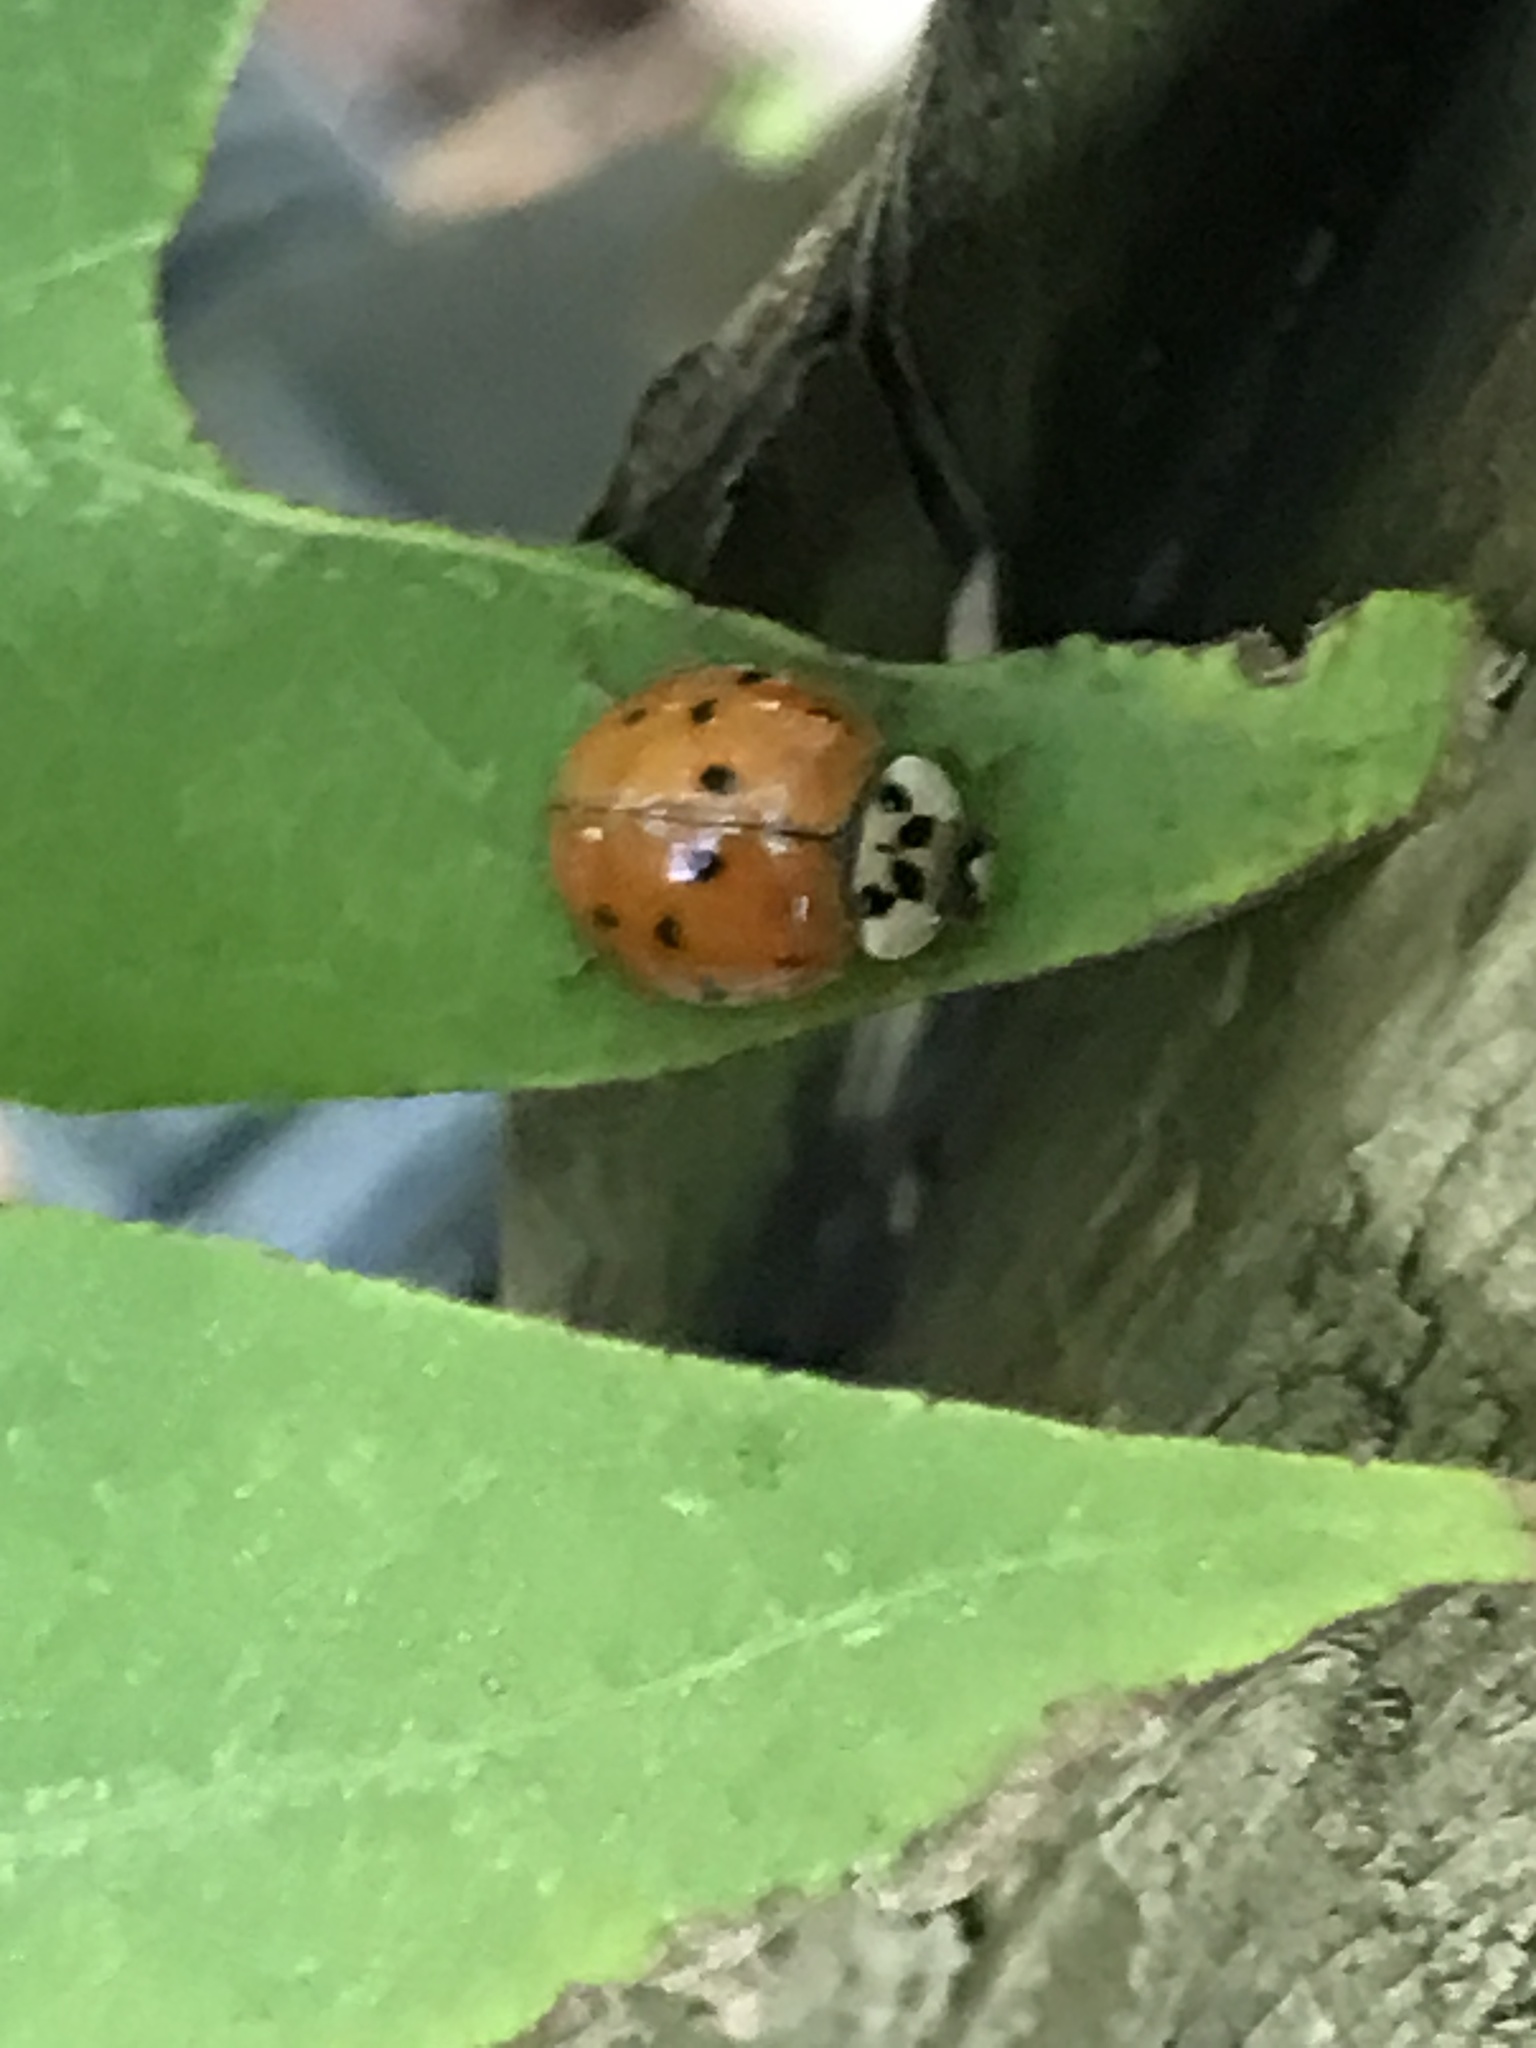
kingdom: Animalia
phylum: Arthropoda
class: Insecta
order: Coleoptera
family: Coccinellidae
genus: Harmonia
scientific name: Harmonia axyridis
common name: Harlequin ladybird
